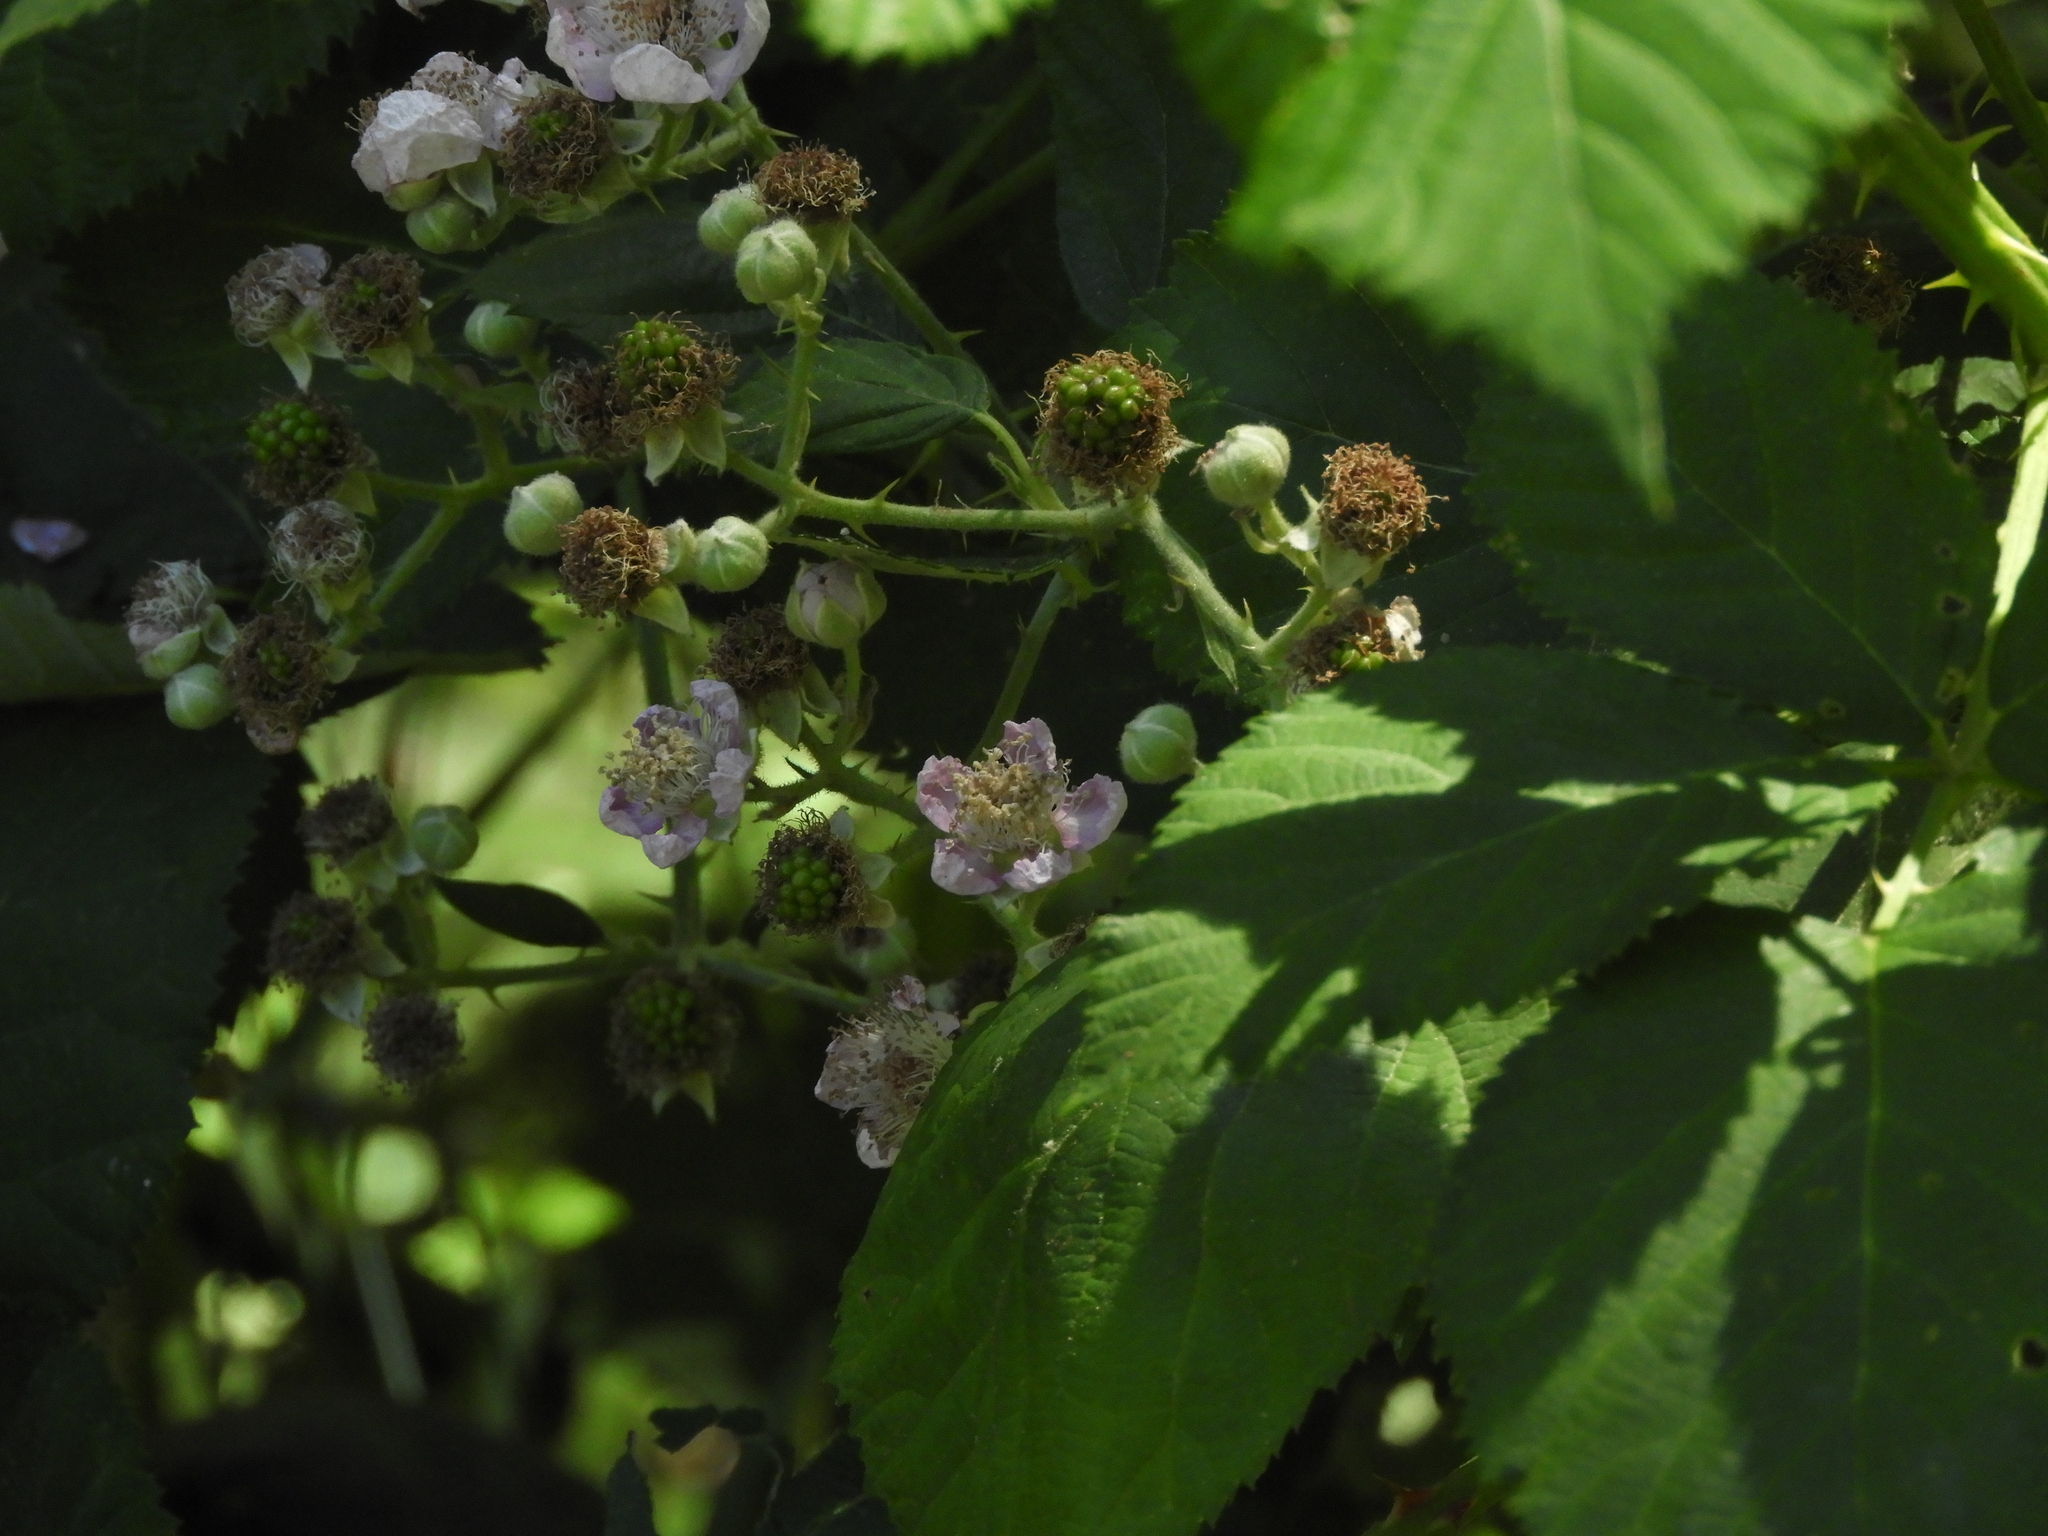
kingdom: Plantae
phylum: Tracheophyta
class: Magnoliopsida
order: Rosales
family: Rosaceae
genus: Rubus
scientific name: Rubus armeniacus
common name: Himalayan blackberry
